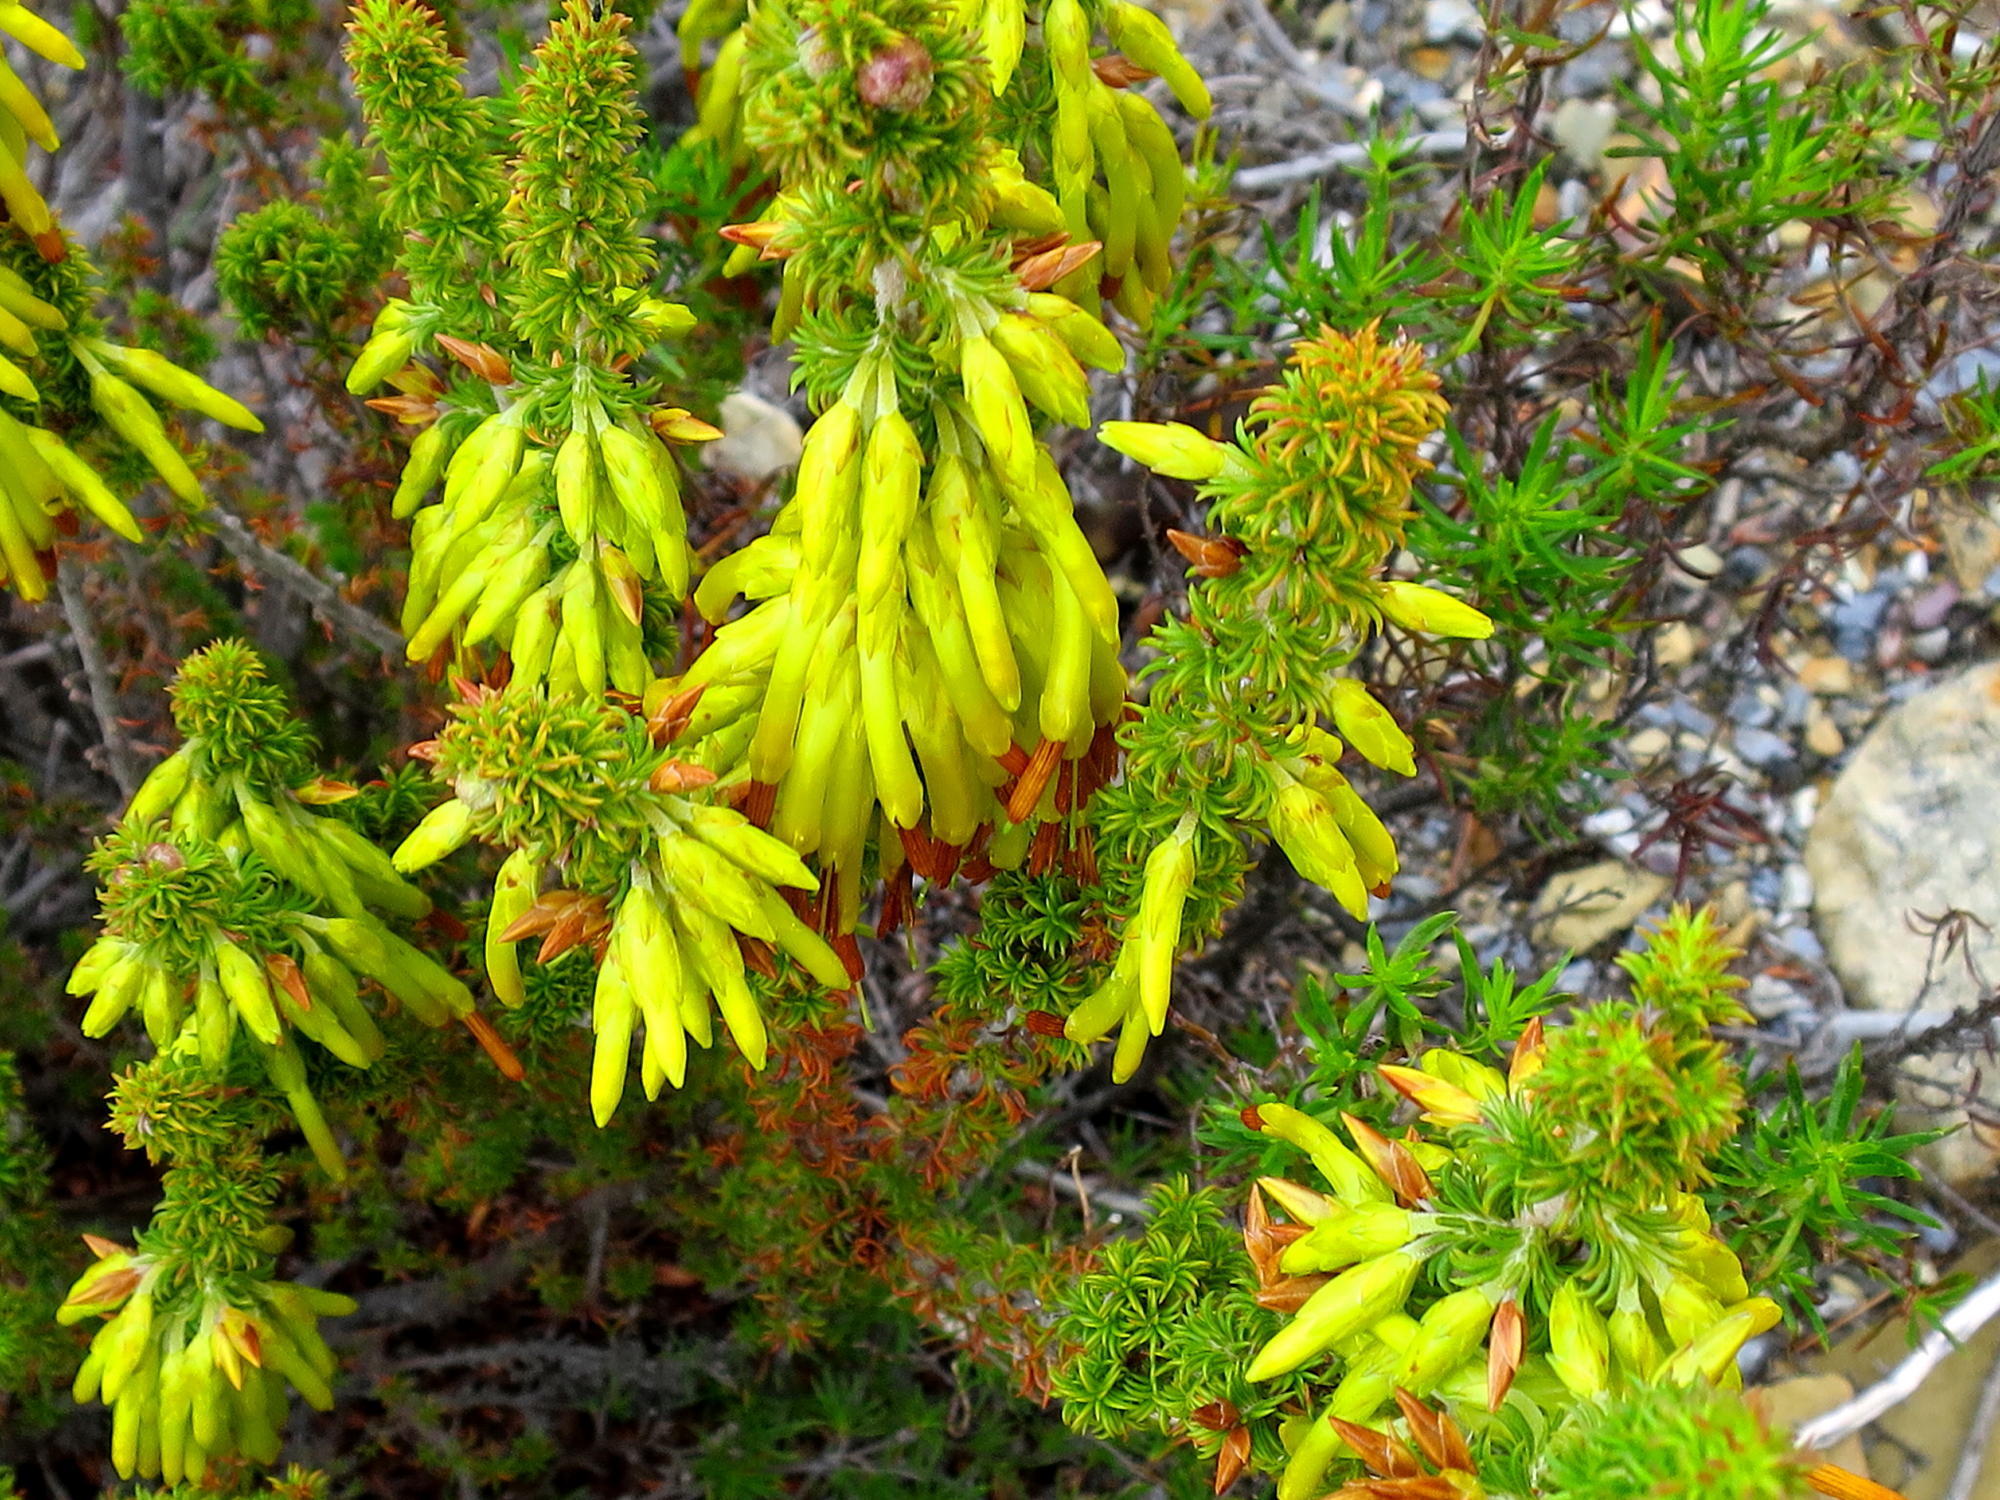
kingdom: Plantae
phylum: Tracheophyta
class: Magnoliopsida
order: Ericales
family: Ericaceae
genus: Erica
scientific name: Erica coccinea
